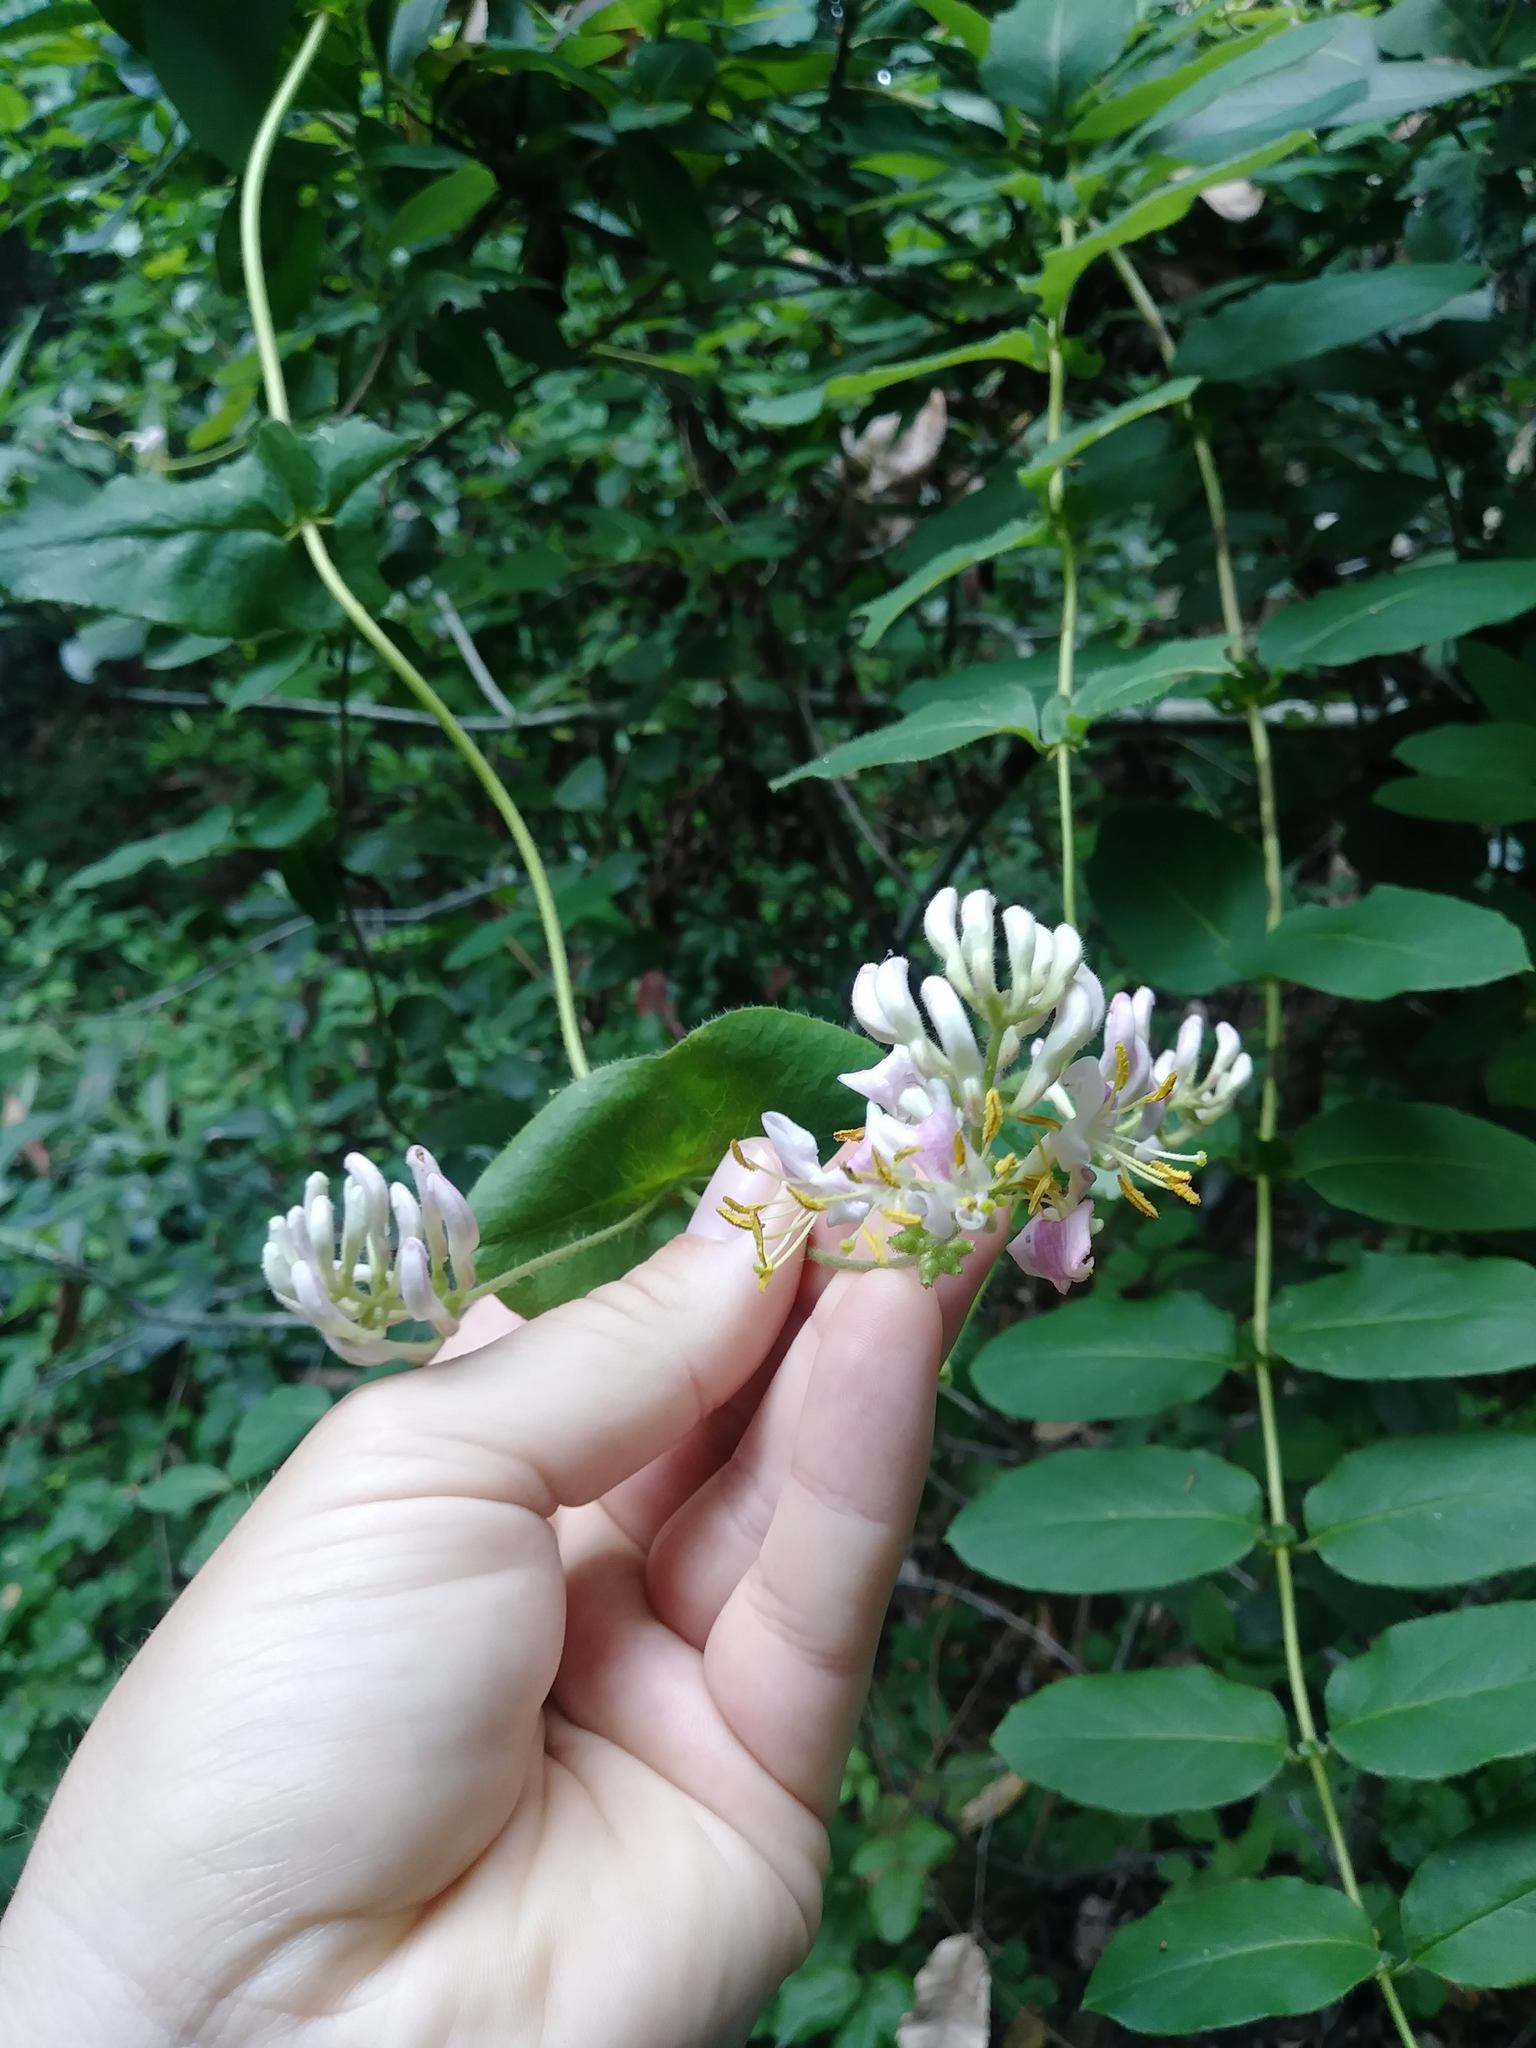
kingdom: Plantae
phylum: Tracheophyta
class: Magnoliopsida
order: Dipsacales
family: Caprifoliaceae
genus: Lonicera
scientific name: Lonicera hispidula
